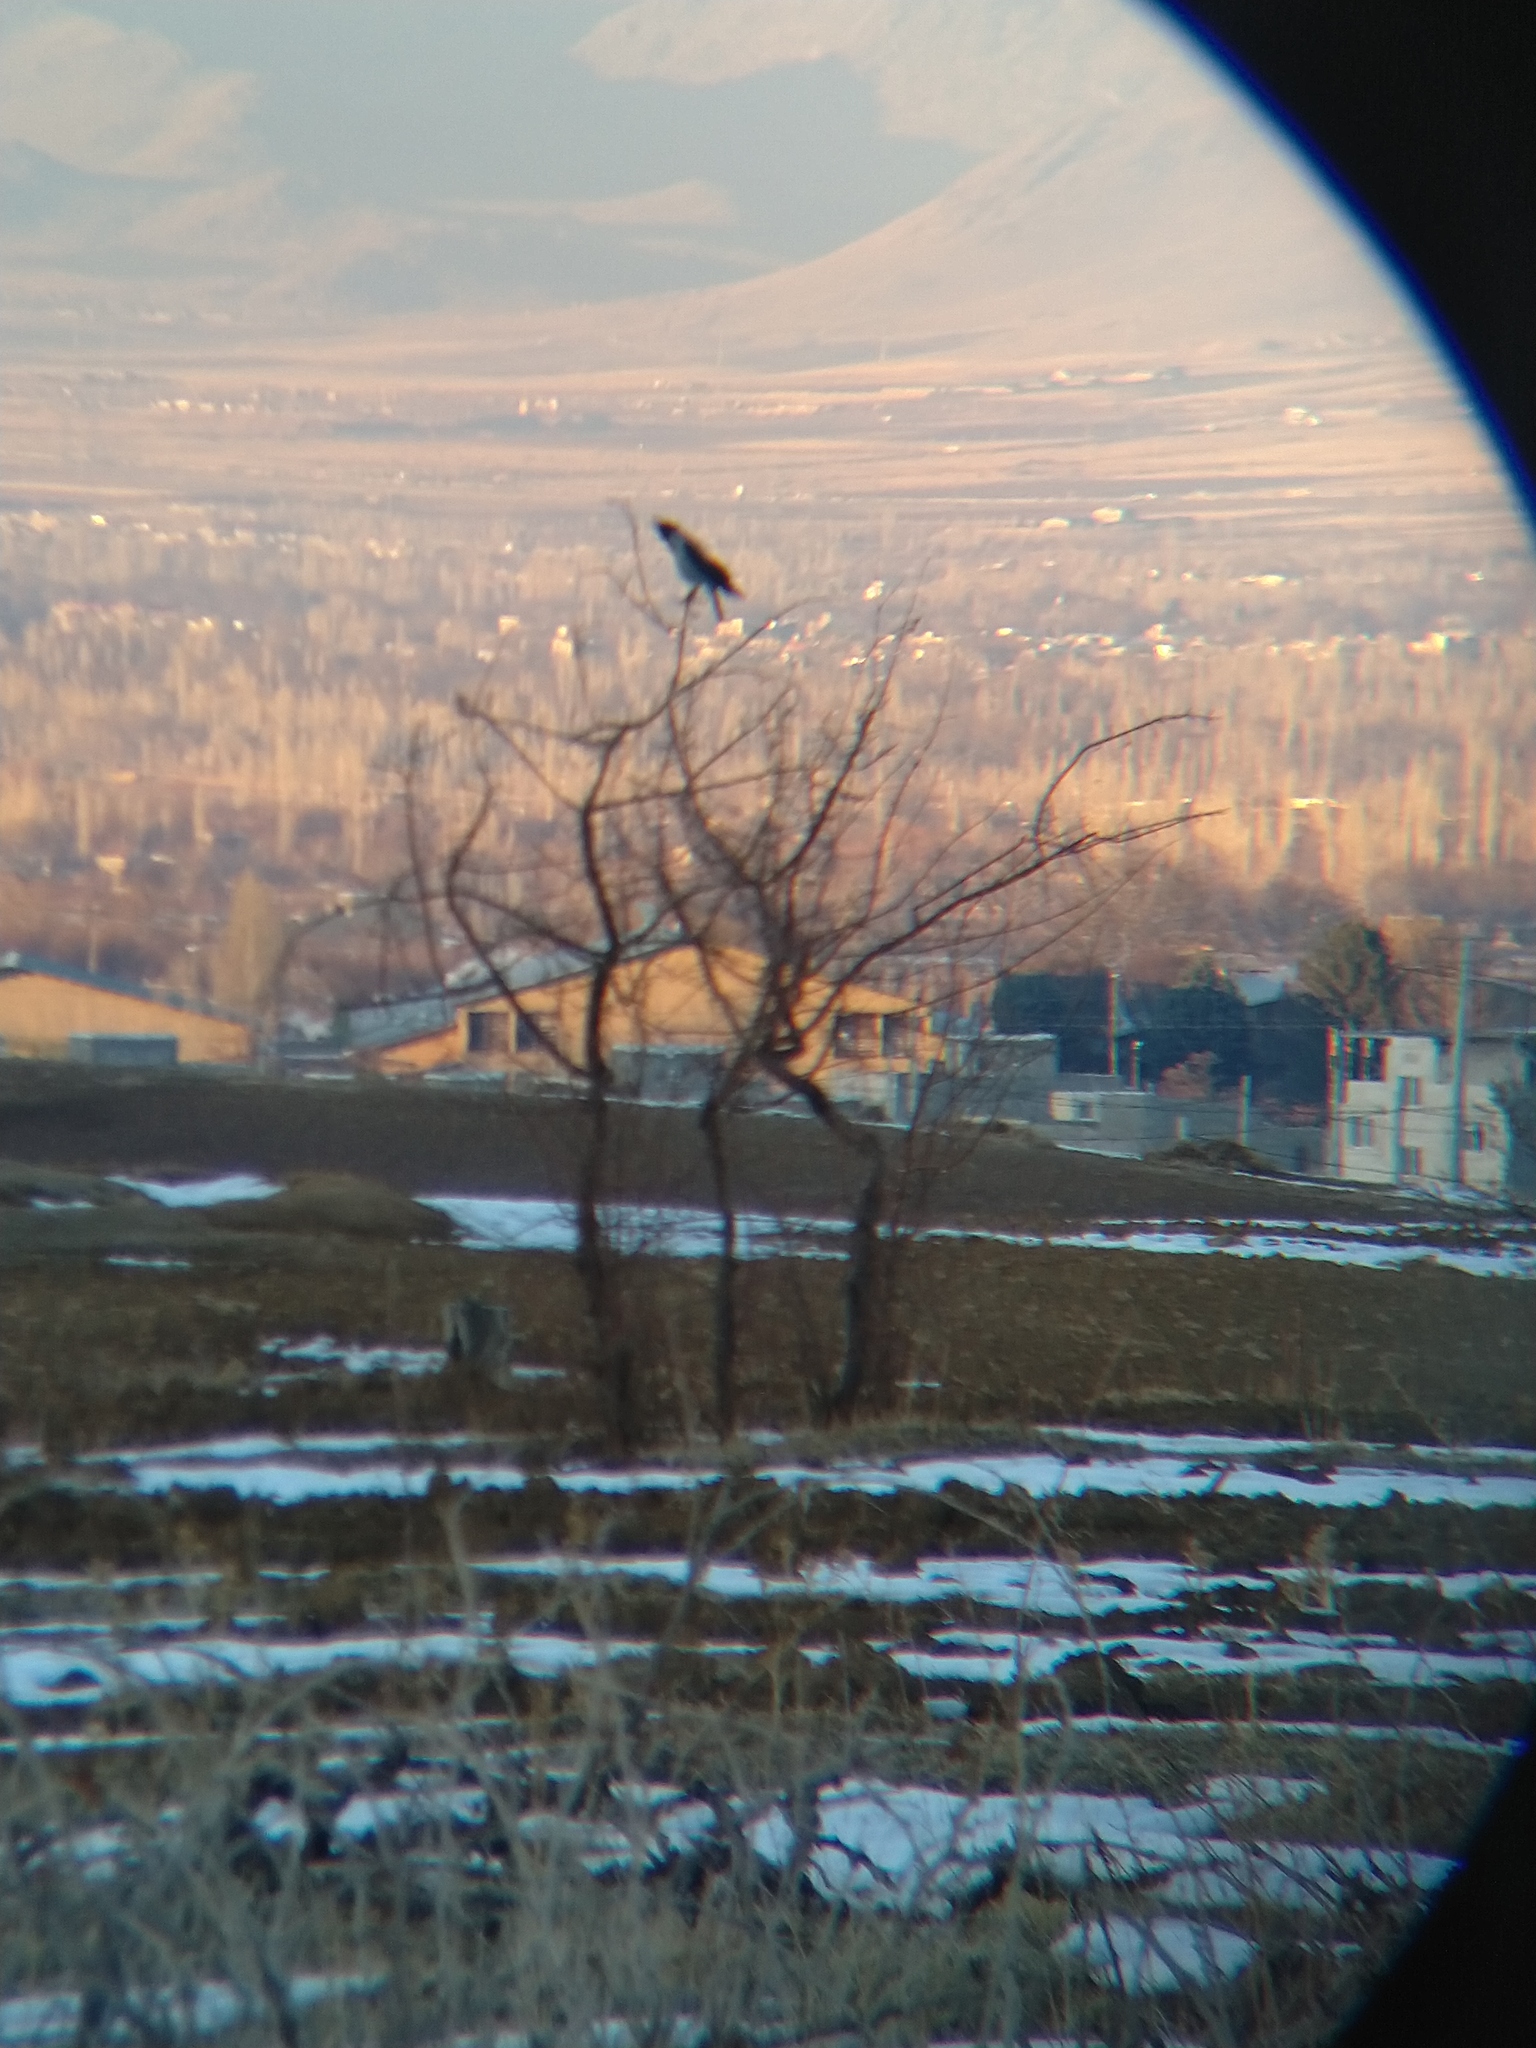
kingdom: Animalia
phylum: Chordata
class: Aves
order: Passeriformes
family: Corvidae
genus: Corvus
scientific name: Corvus cornix
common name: Hooded crow
